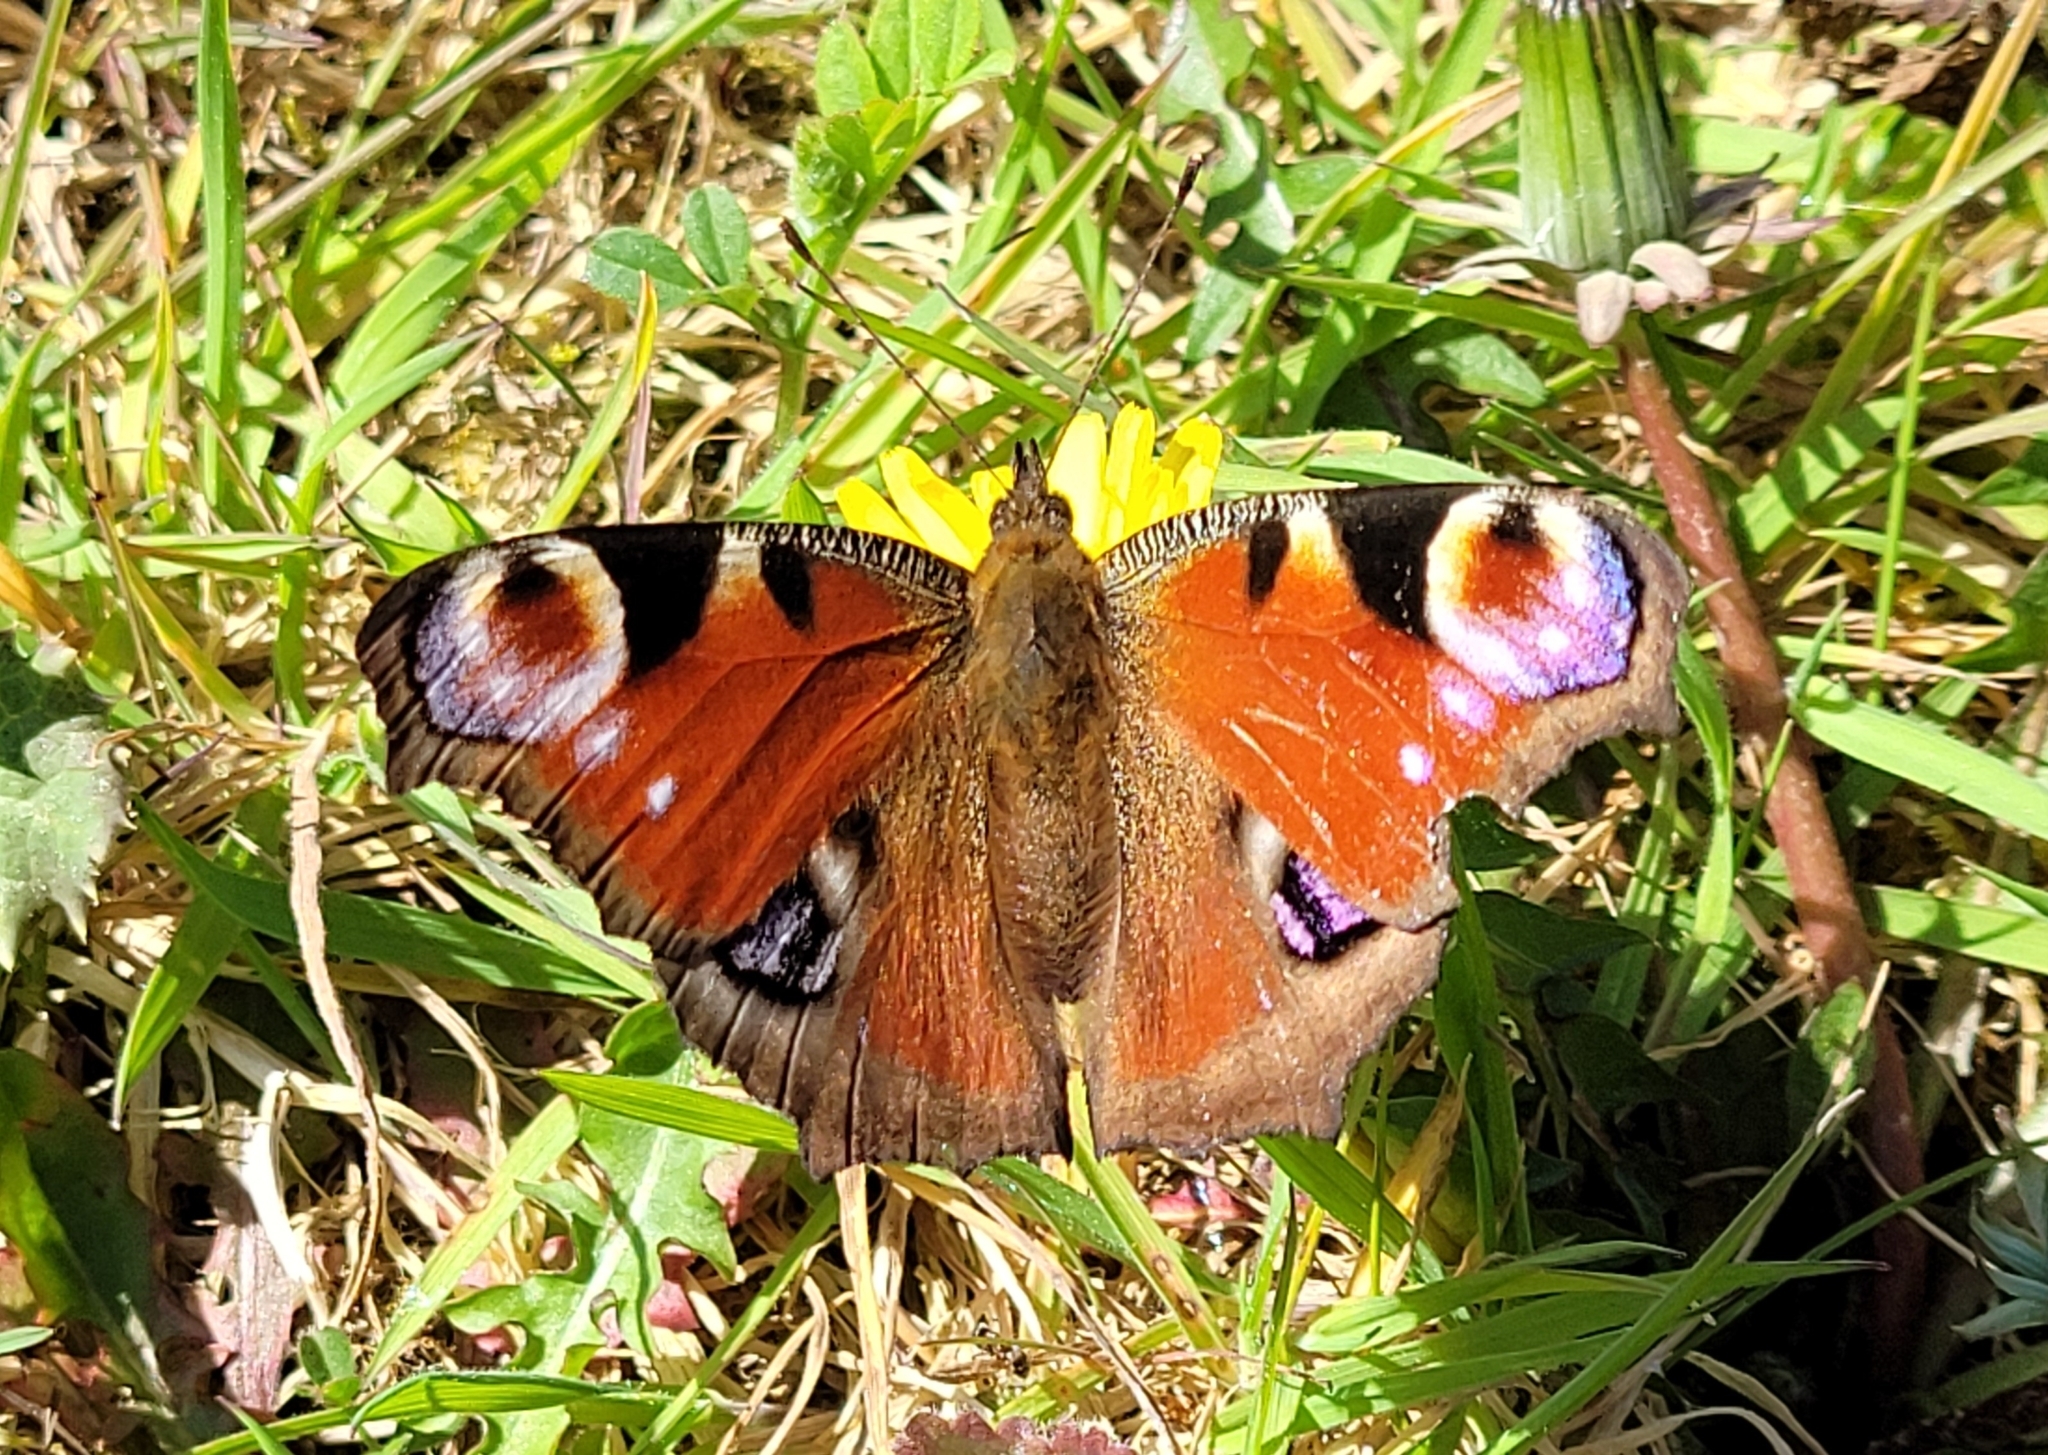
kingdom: Animalia
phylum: Arthropoda
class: Insecta
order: Lepidoptera
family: Nymphalidae
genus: Aglais
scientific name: Aglais io
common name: Peacock
